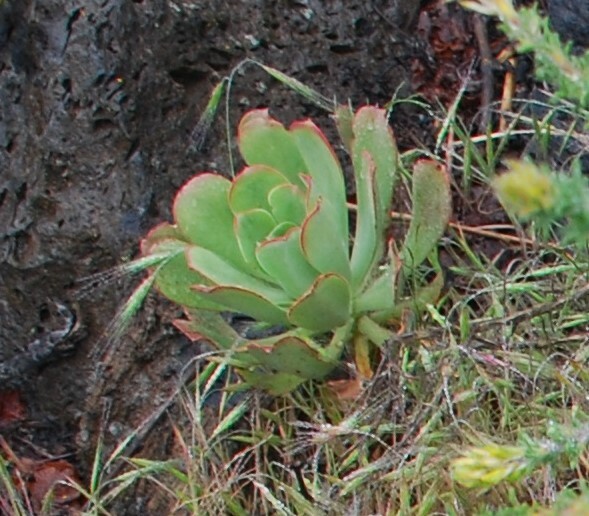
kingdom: Plantae
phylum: Tracheophyta
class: Magnoliopsida
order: Saxifragales
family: Crassulaceae
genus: Aeonium
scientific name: Aeonium urbicum
